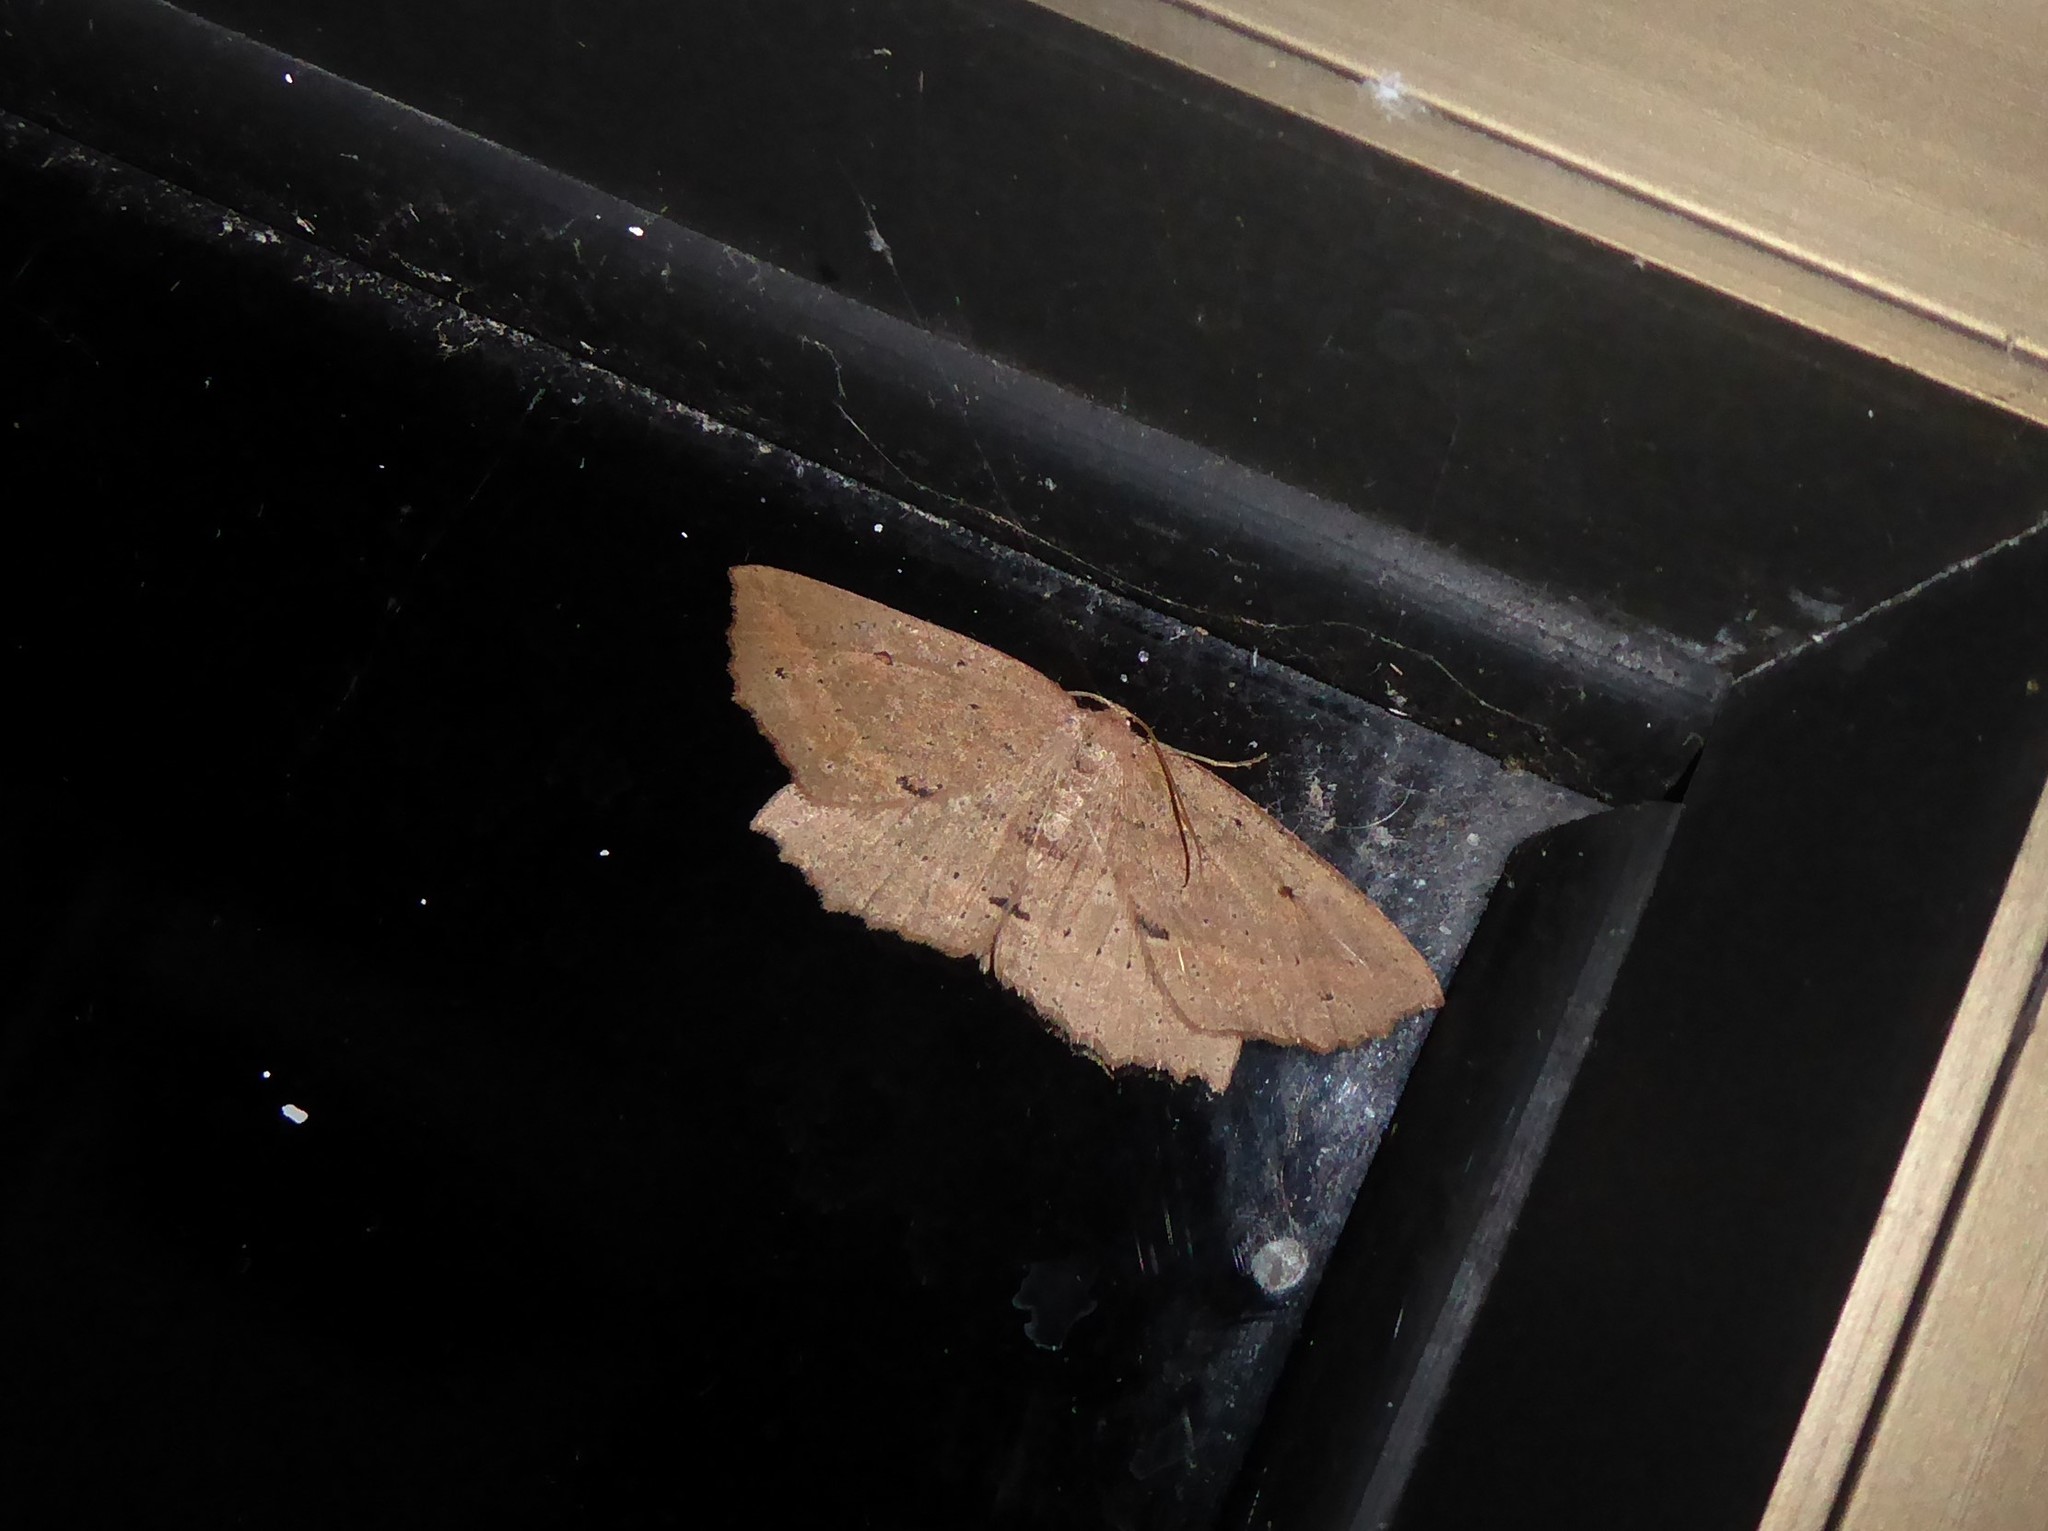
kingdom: Animalia
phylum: Arthropoda
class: Insecta
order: Lepidoptera
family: Geometridae
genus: Xyridacma
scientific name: Xyridacma veronicae
